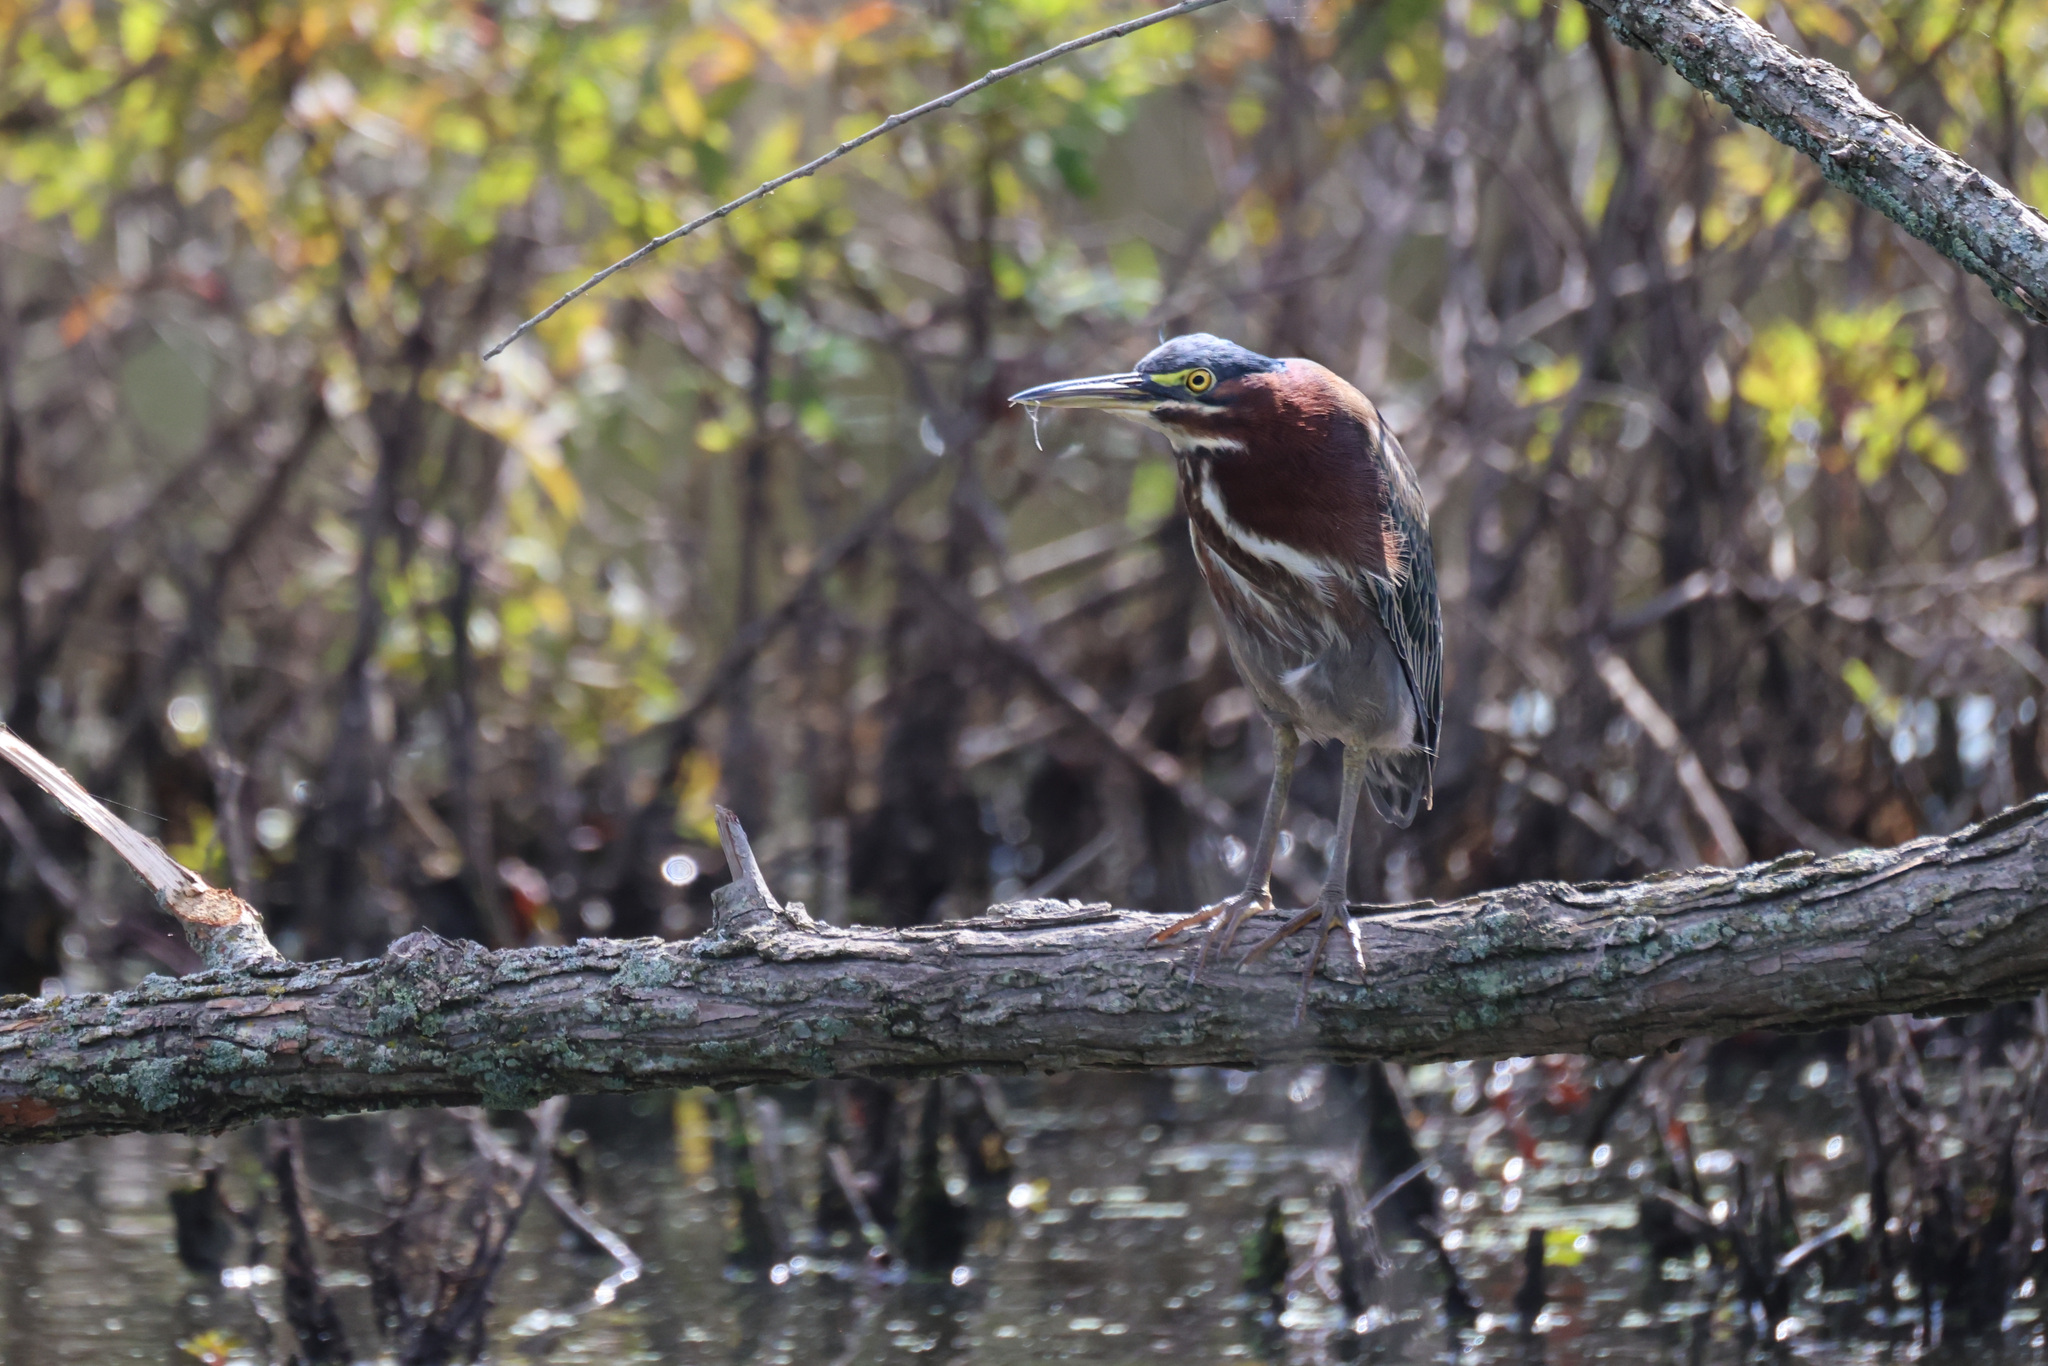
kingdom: Animalia
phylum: Chordata
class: Aves
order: Pelecaniformes
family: Ardeidae
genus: Butorides
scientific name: Butorides virescens
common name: Green heron
